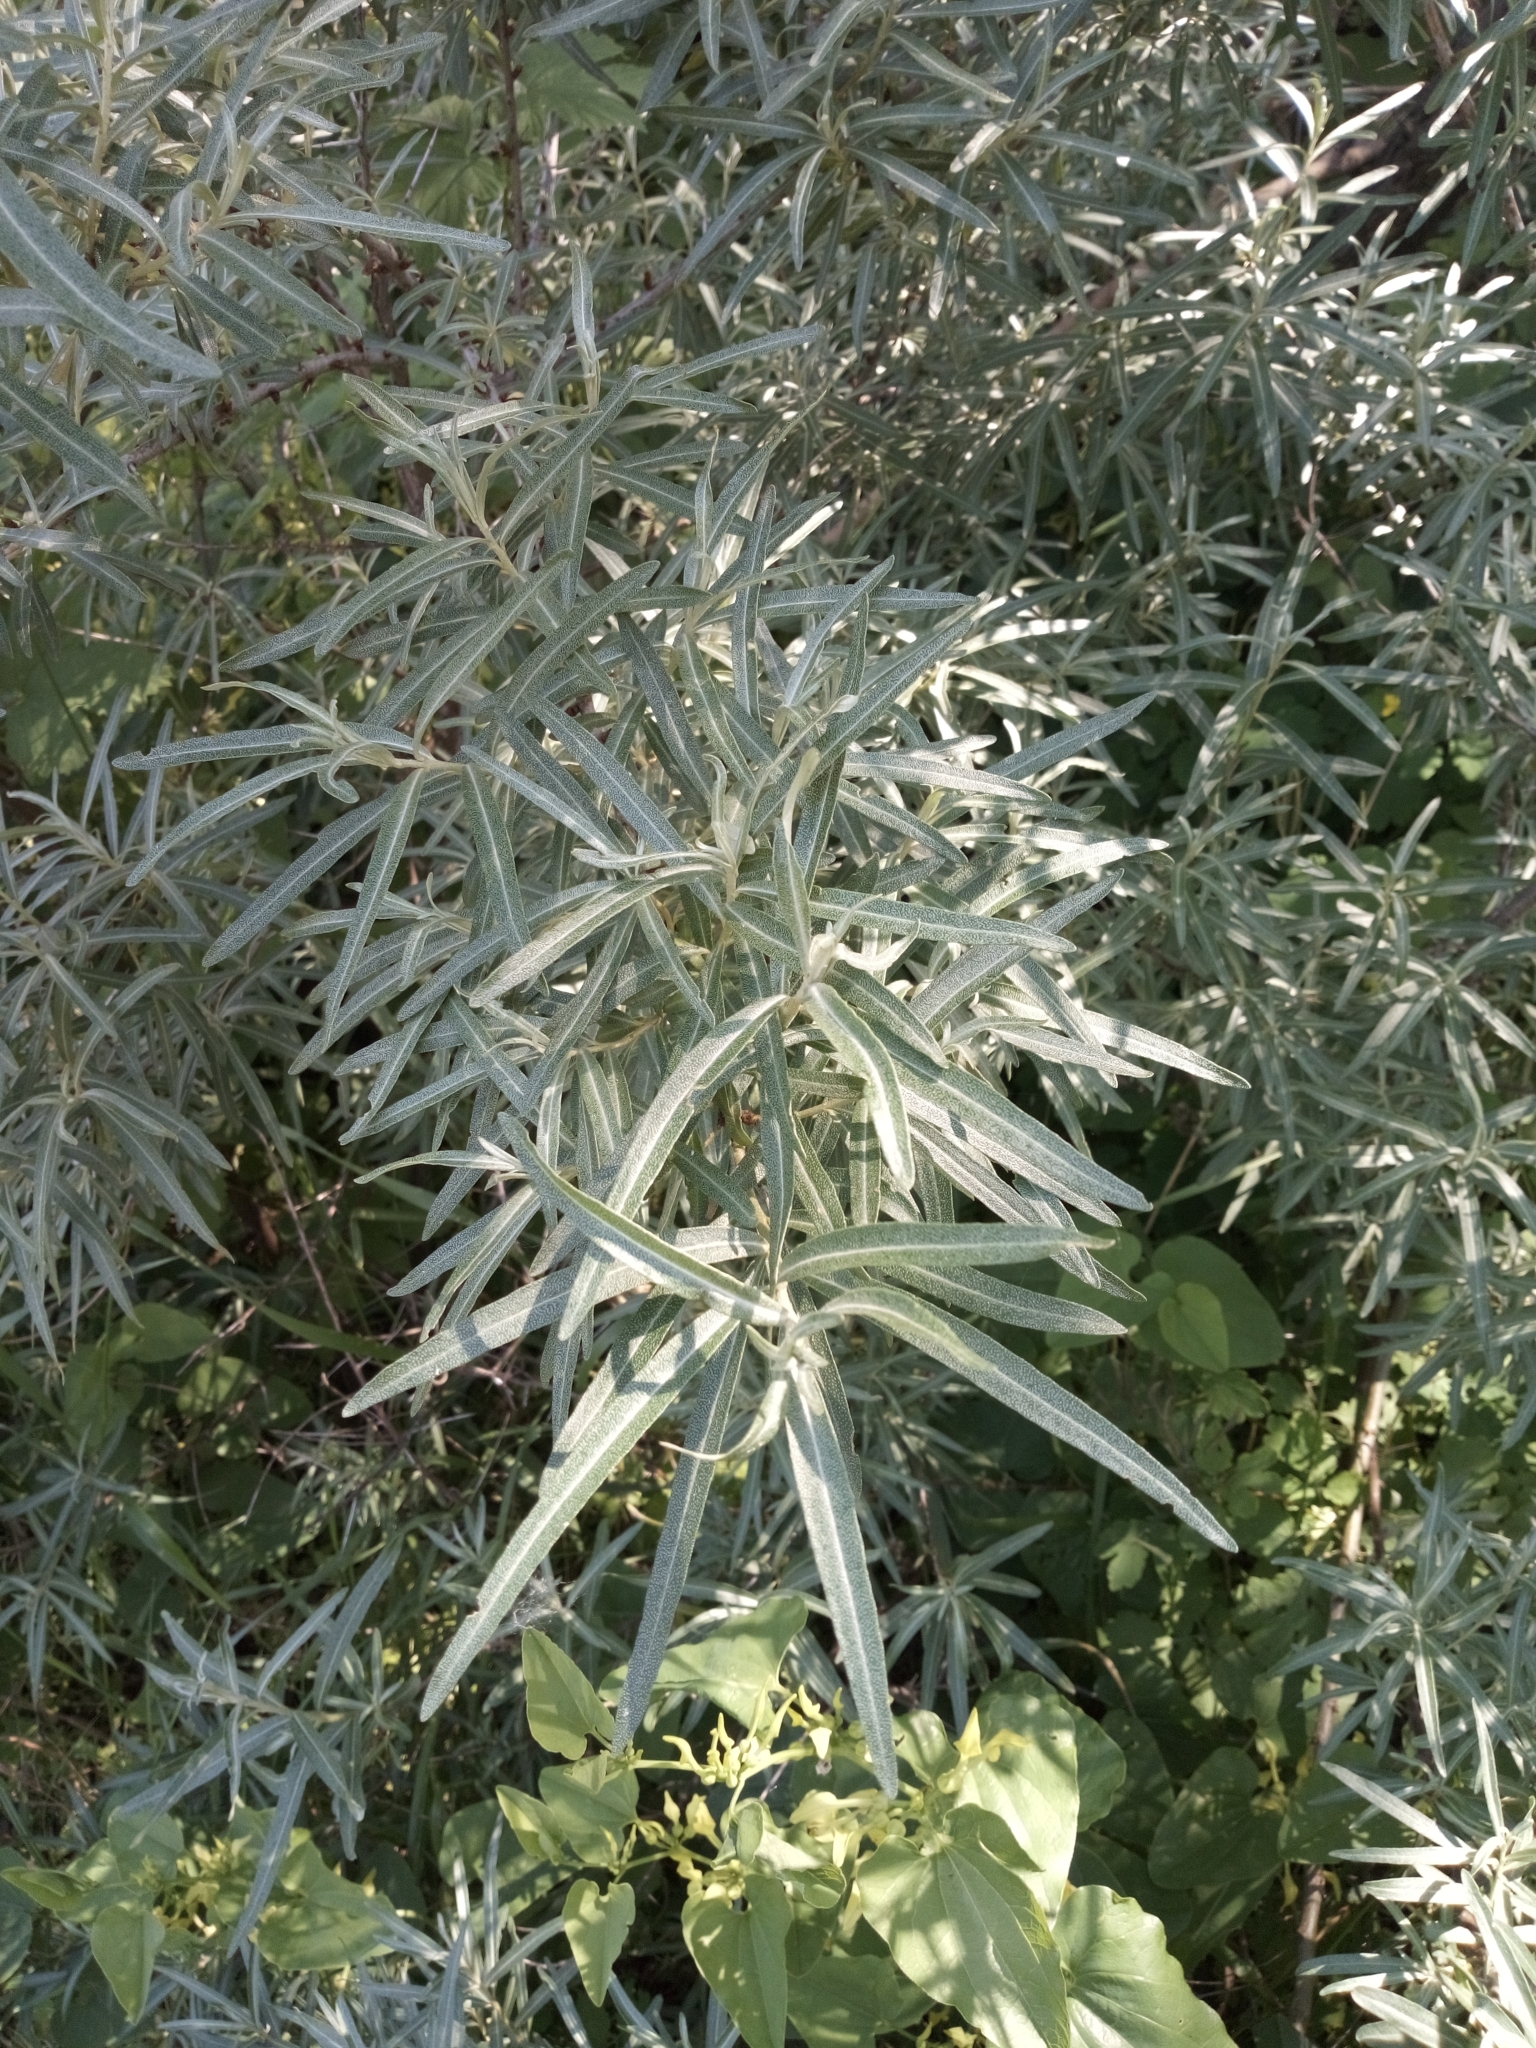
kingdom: Plantae
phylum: Tracheophyta
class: Magnoliopsida
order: Rosales
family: Elaeagnaceae
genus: Hippophae
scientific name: Hippophae rhamnoides
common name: Sea-buckthorn
